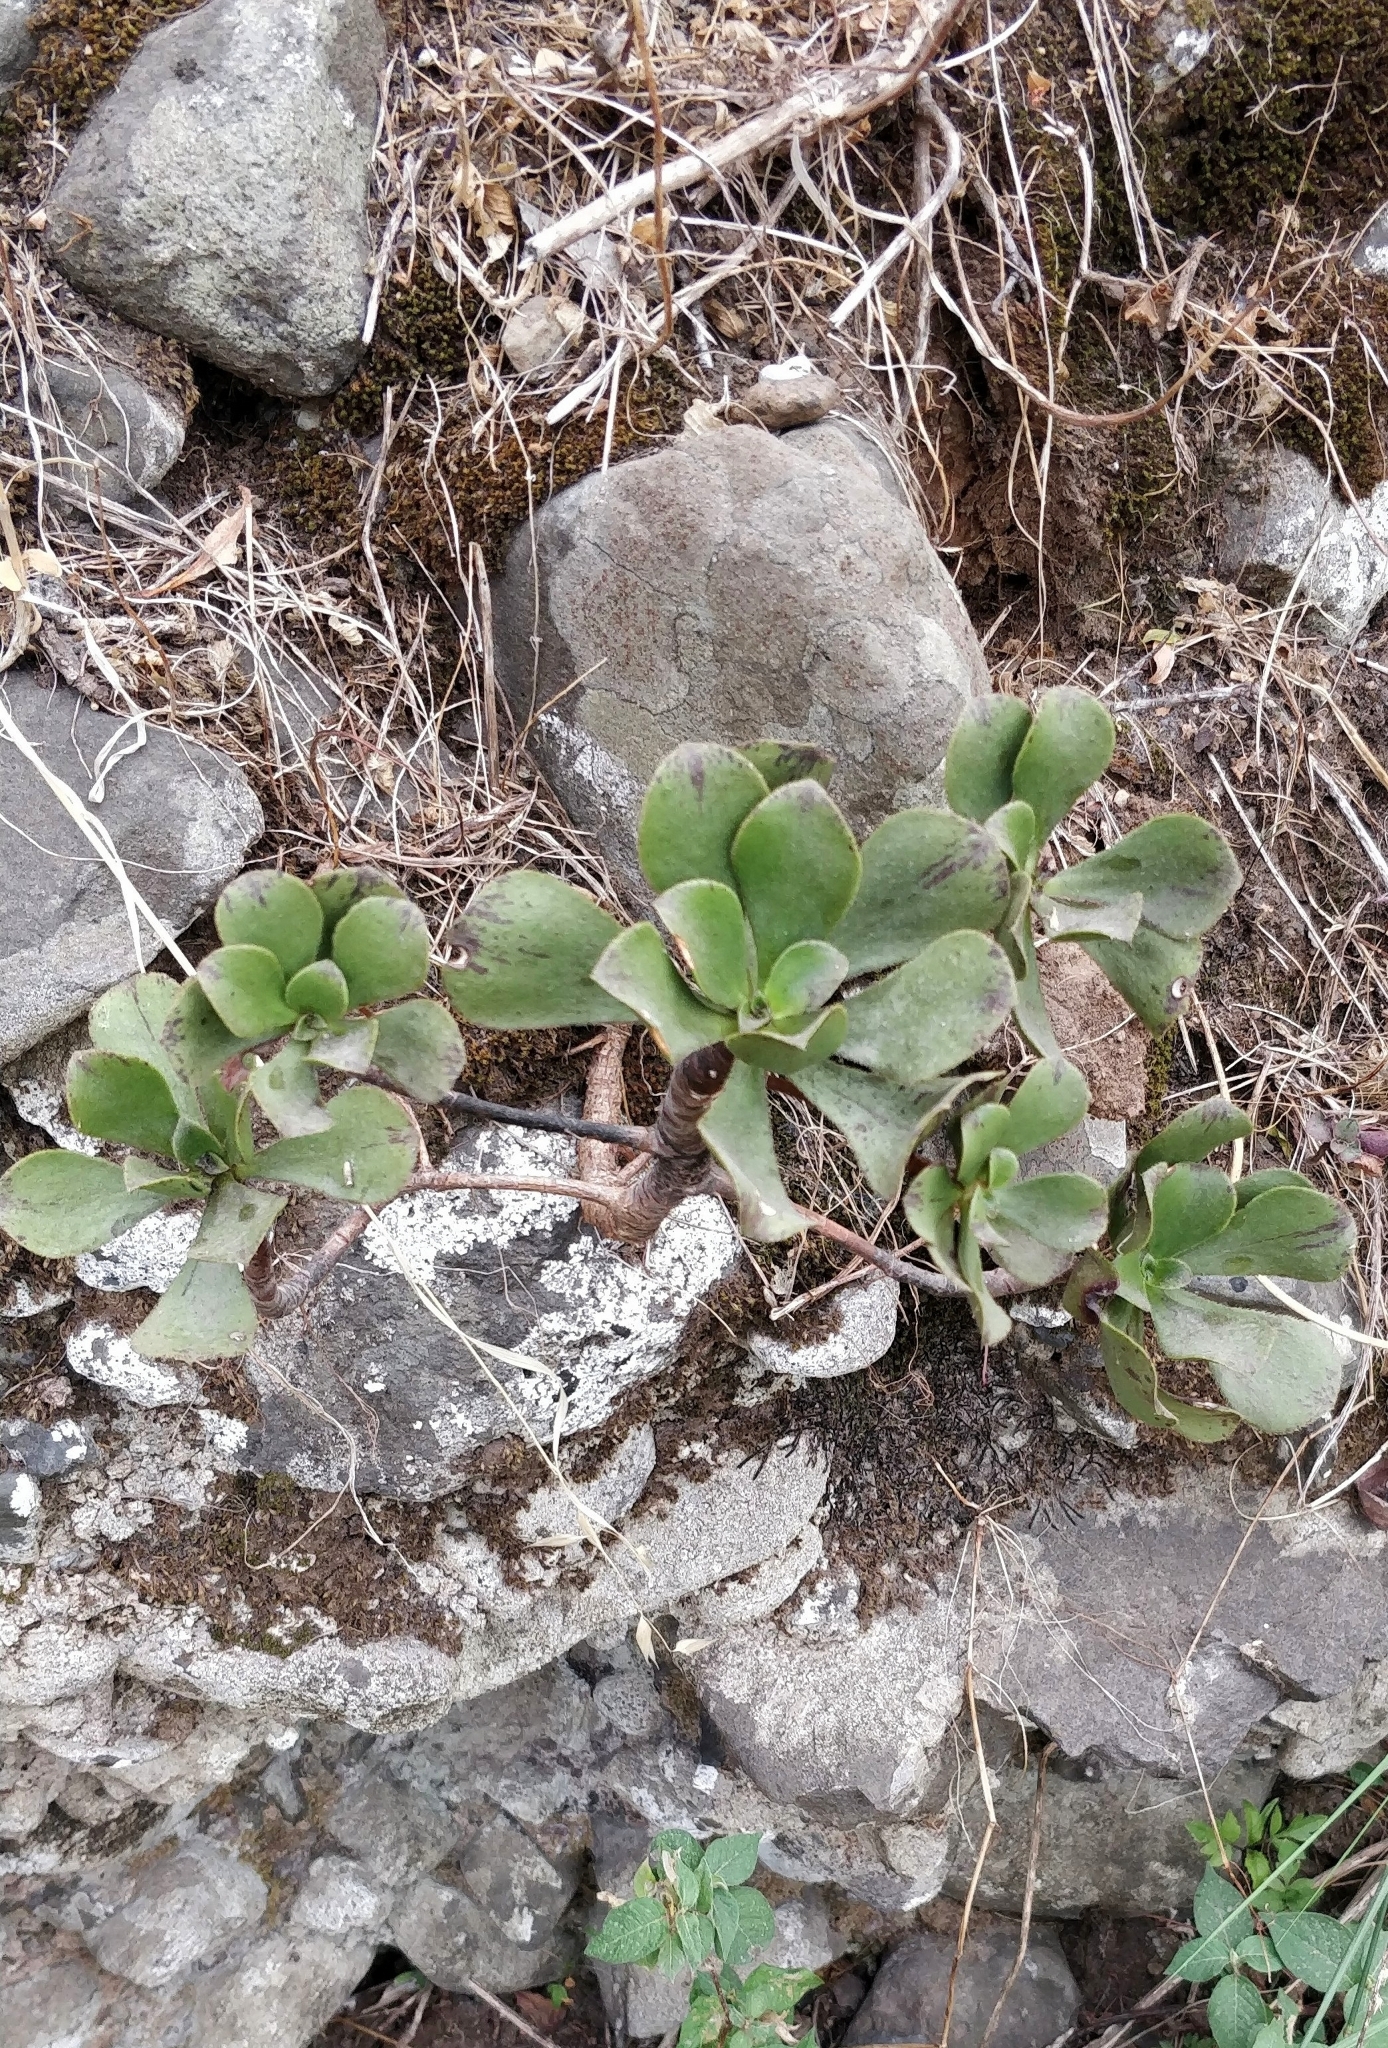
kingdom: Plantae
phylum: Tracheophyta
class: Magnoliopsida
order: Saxifragales
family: Crassulaceae
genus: Aeonium
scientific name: Aeonium glutinosum
